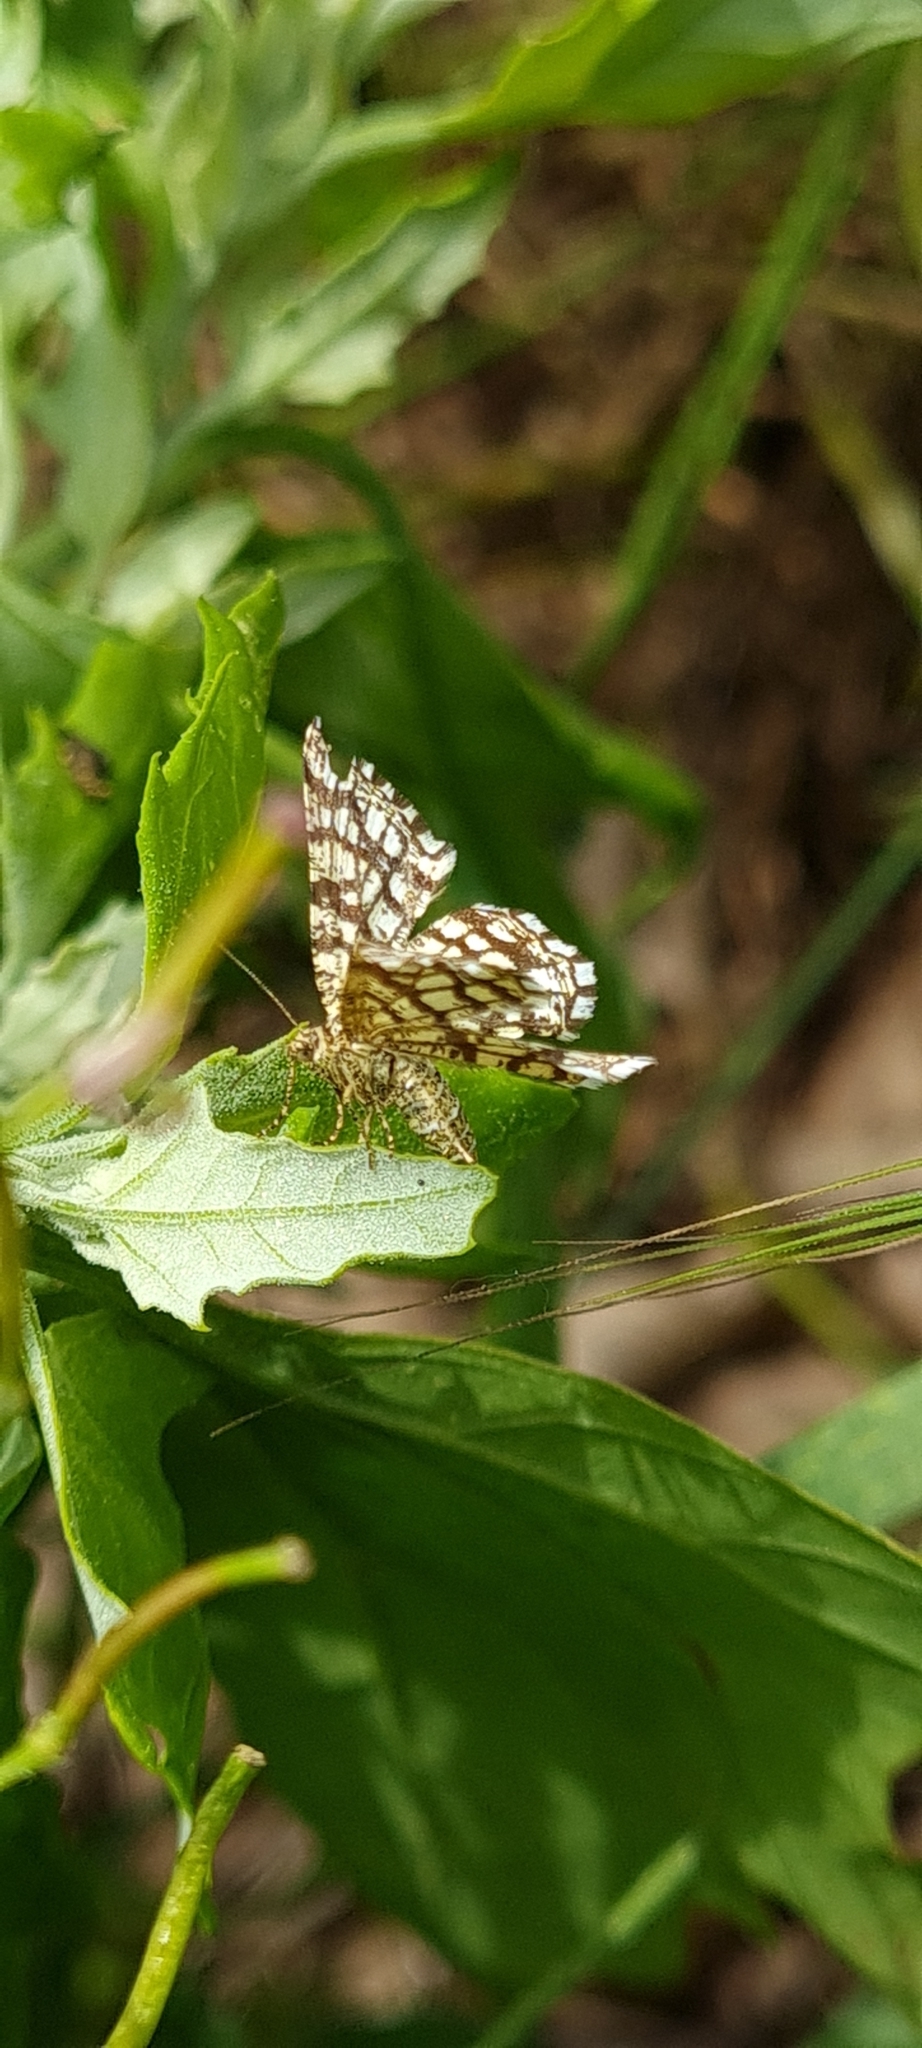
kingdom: Animalia
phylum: Arthropoda
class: Insecta
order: Lepidoptera
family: Geometridae
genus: Chiasmia
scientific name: Chiasmia clathrata
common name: Latticed heath
